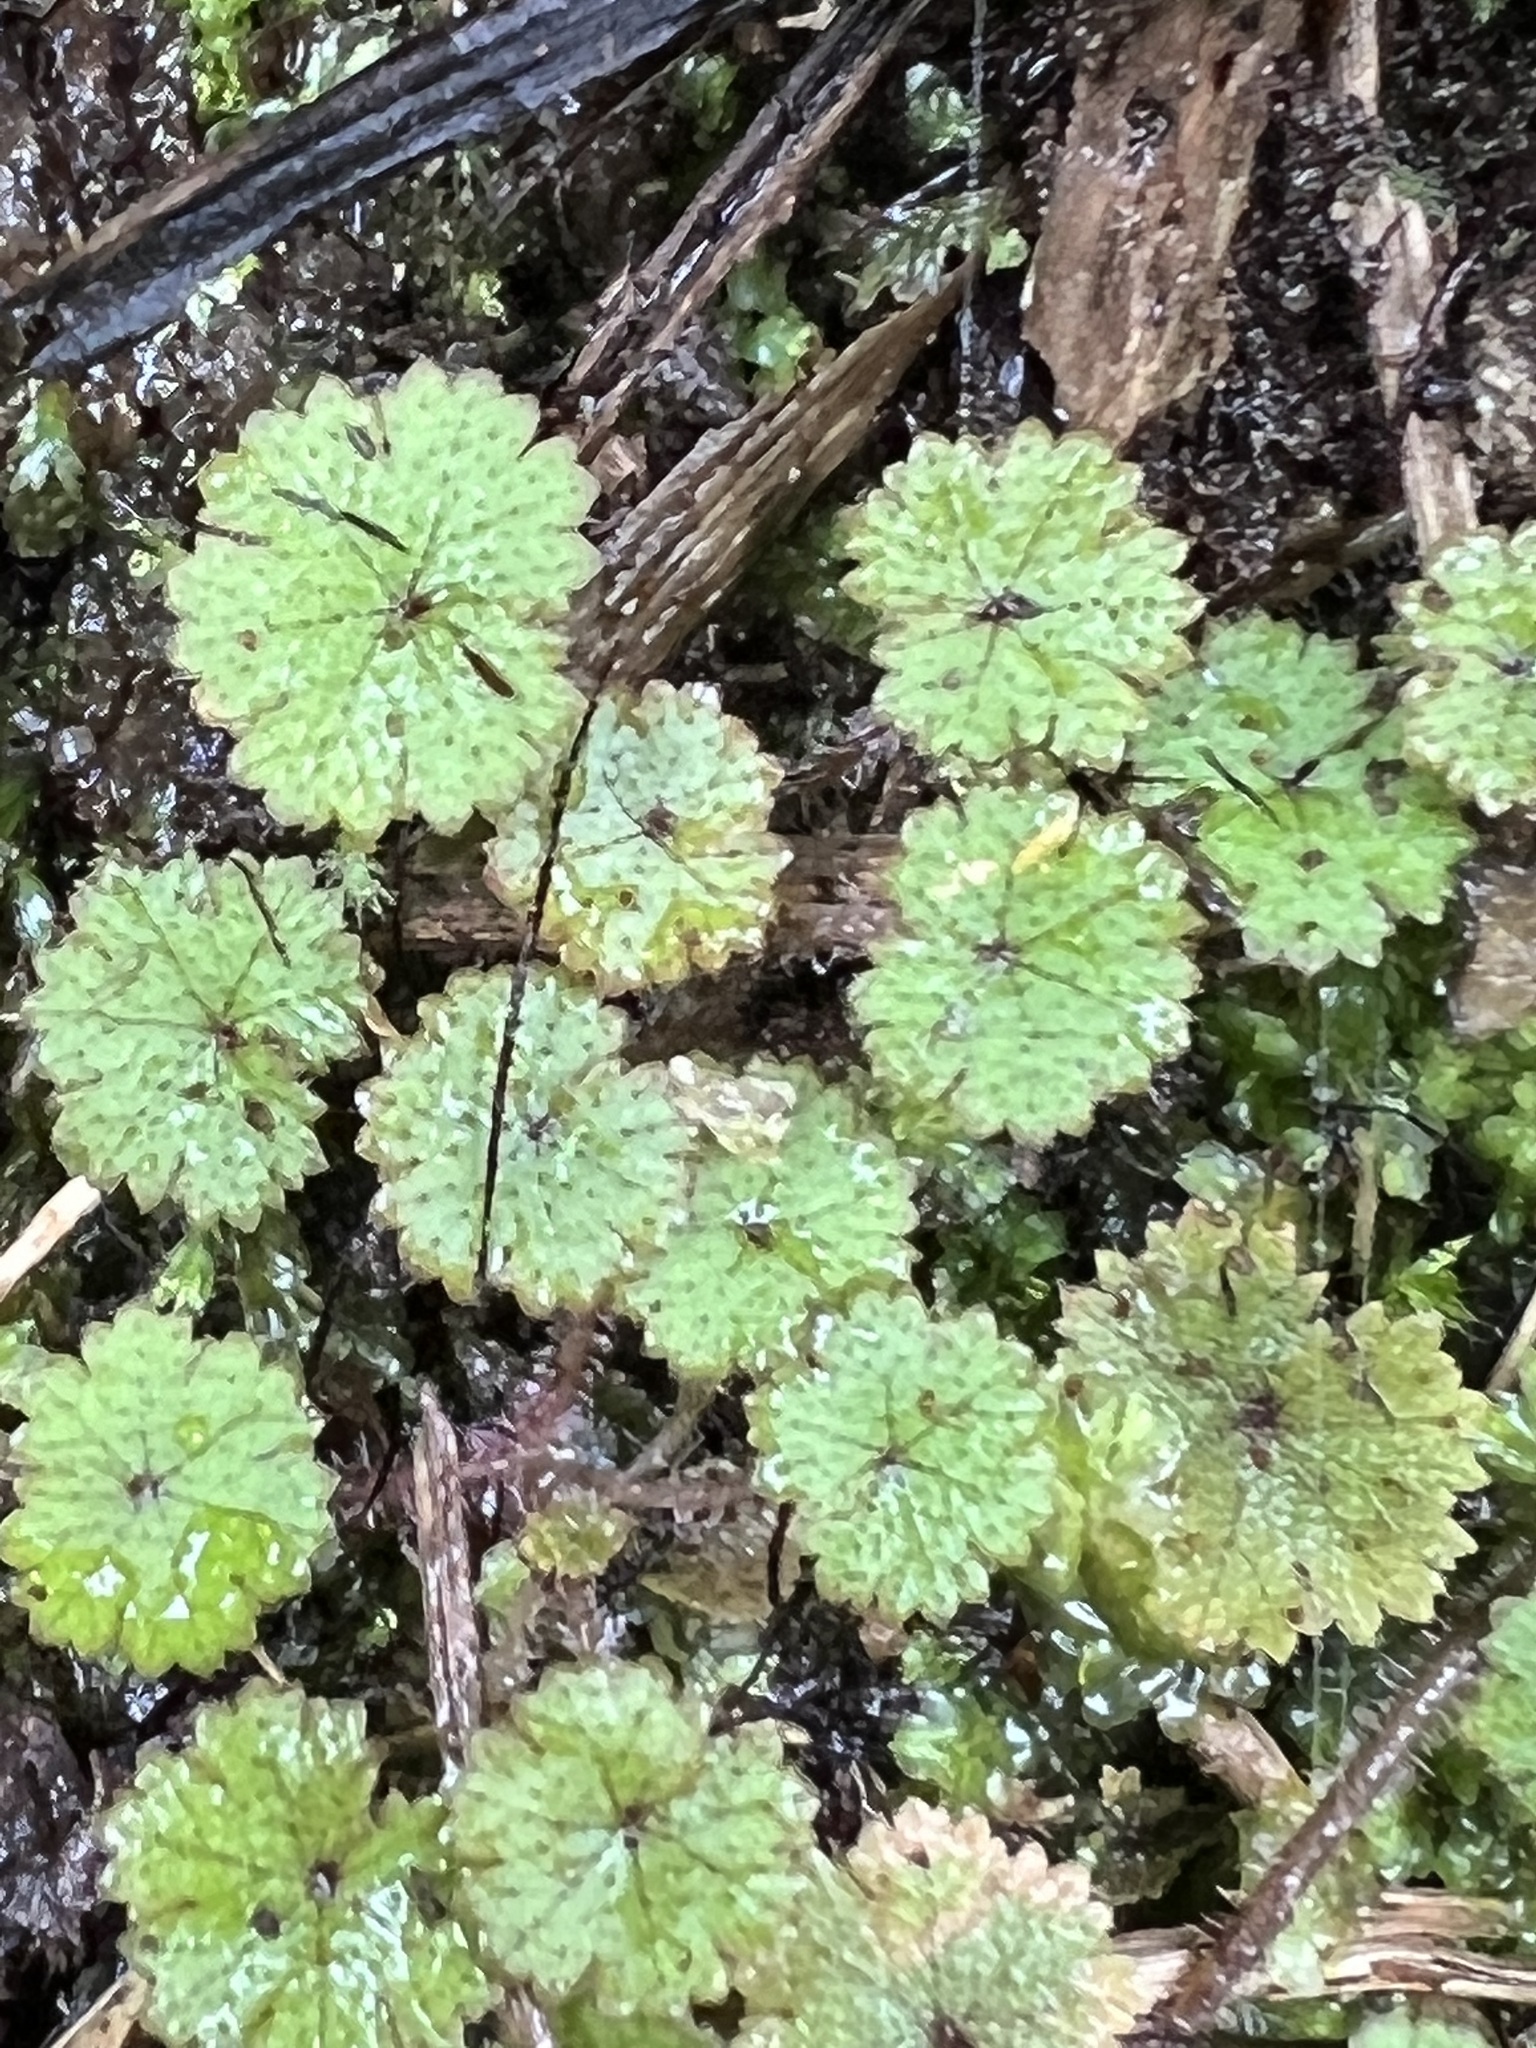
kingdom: Plantae
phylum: Tracheophyta
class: Magnoliopsida
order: Apiales
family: Araliaceae
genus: Hydrocotyle
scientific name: Hydrocotyle moschata
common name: Hairy pennywort
